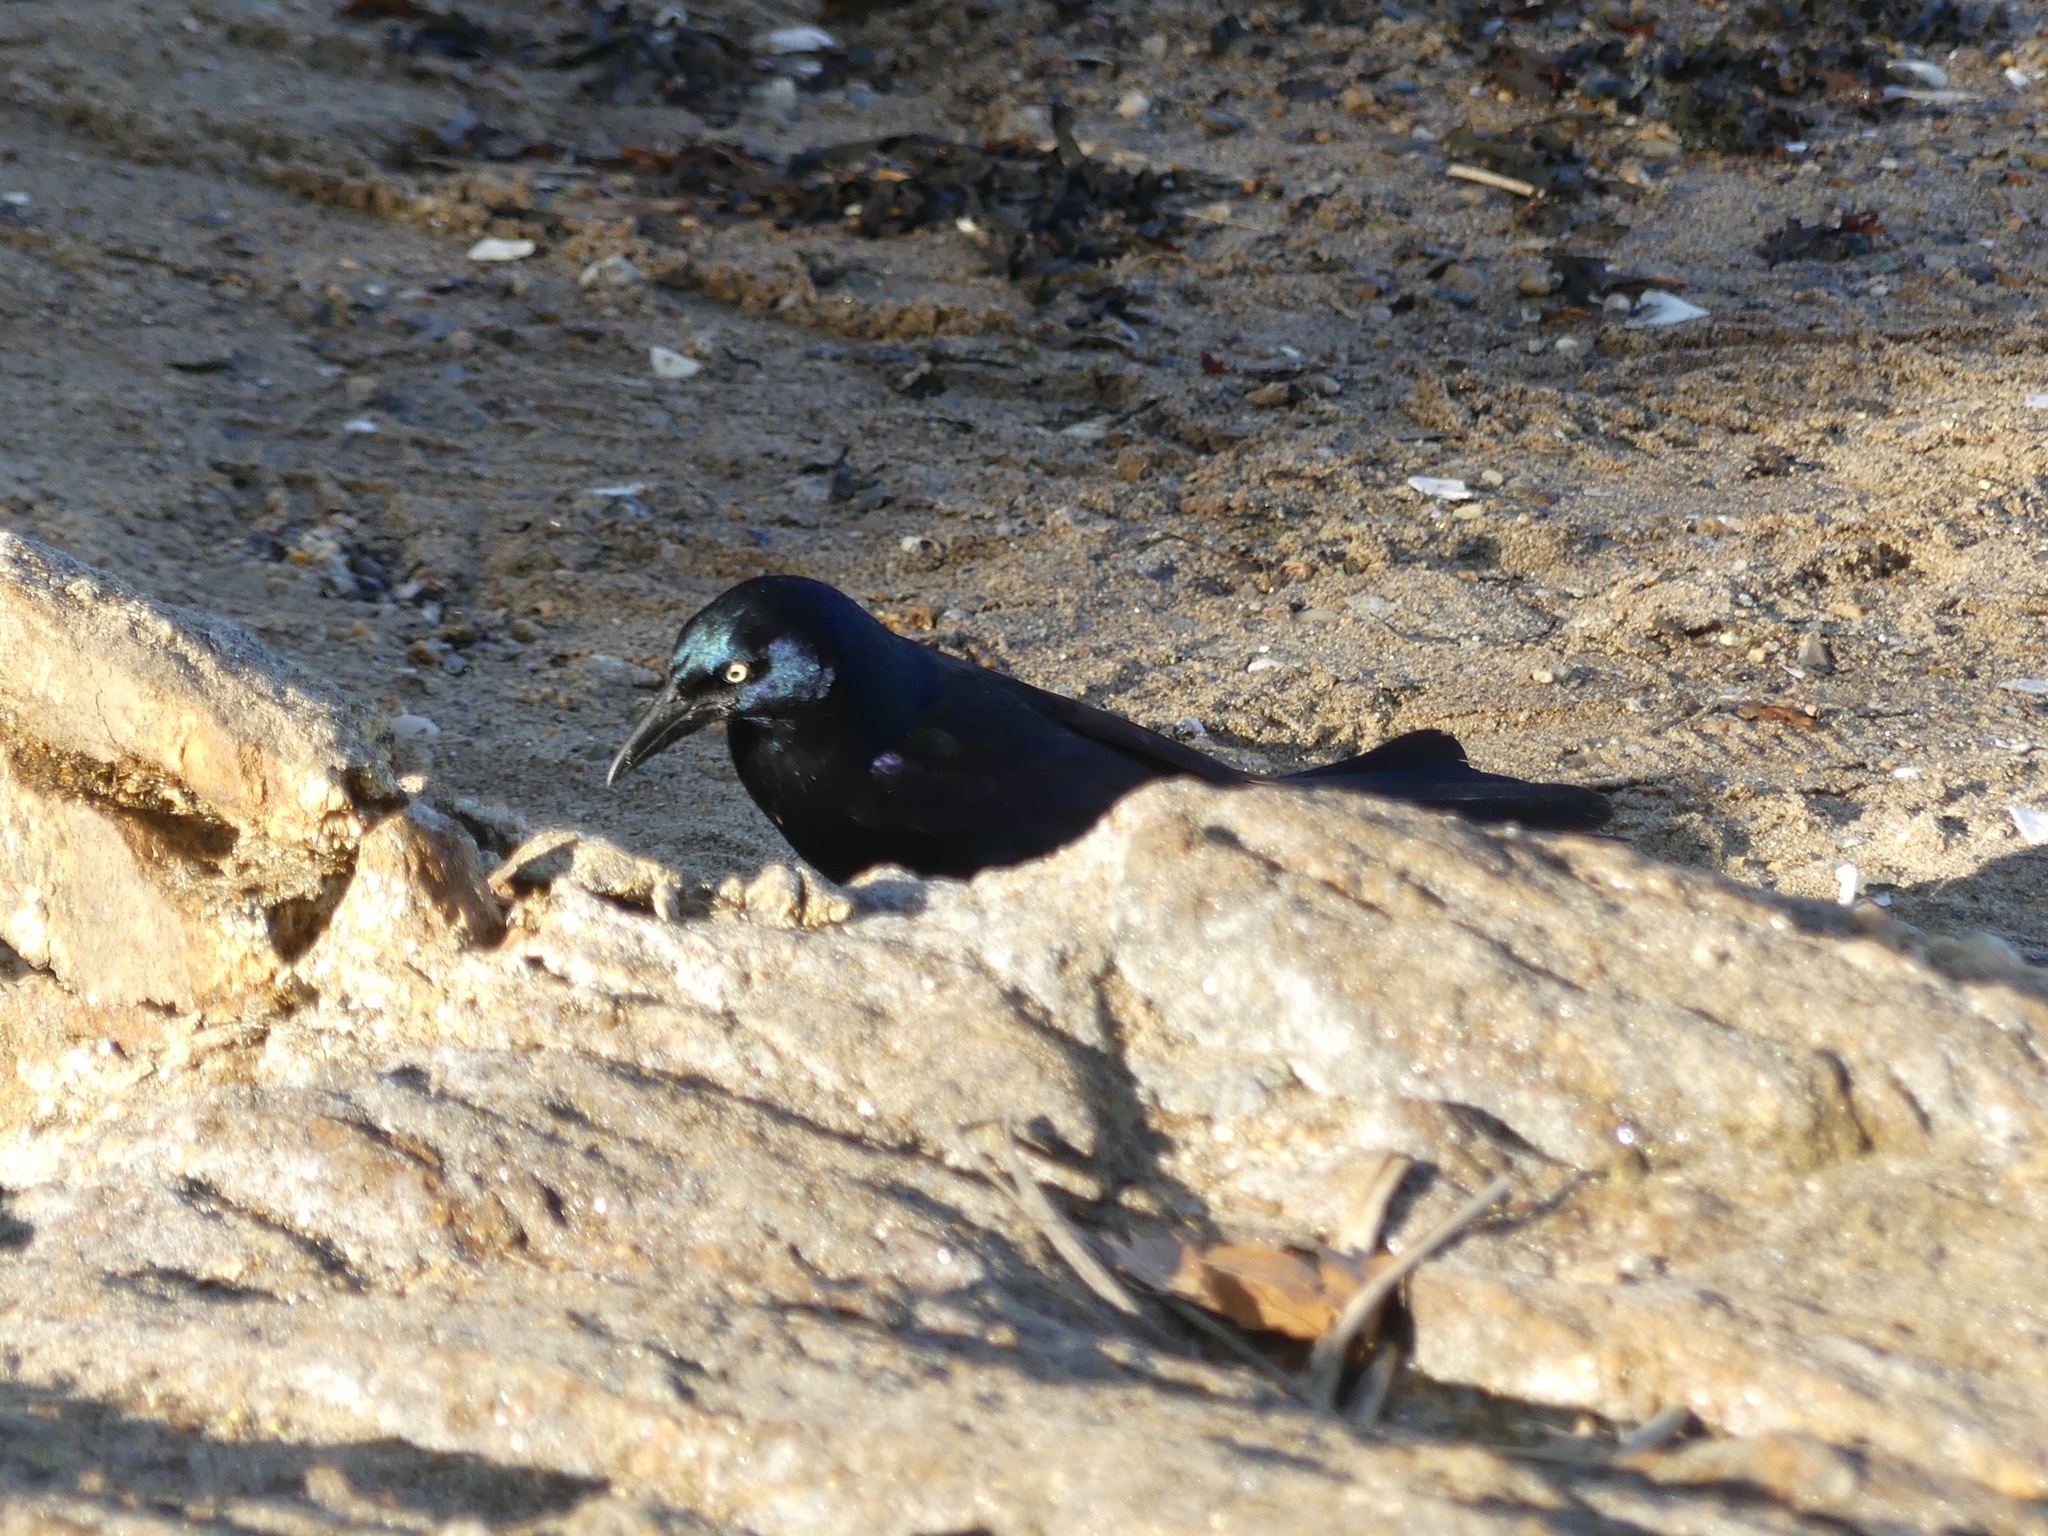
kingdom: Animalia
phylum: Chordata
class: Aves
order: Passeriformes
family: Icteridae
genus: Quiscalus
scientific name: Quiscalus quiscula
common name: Common grackle
